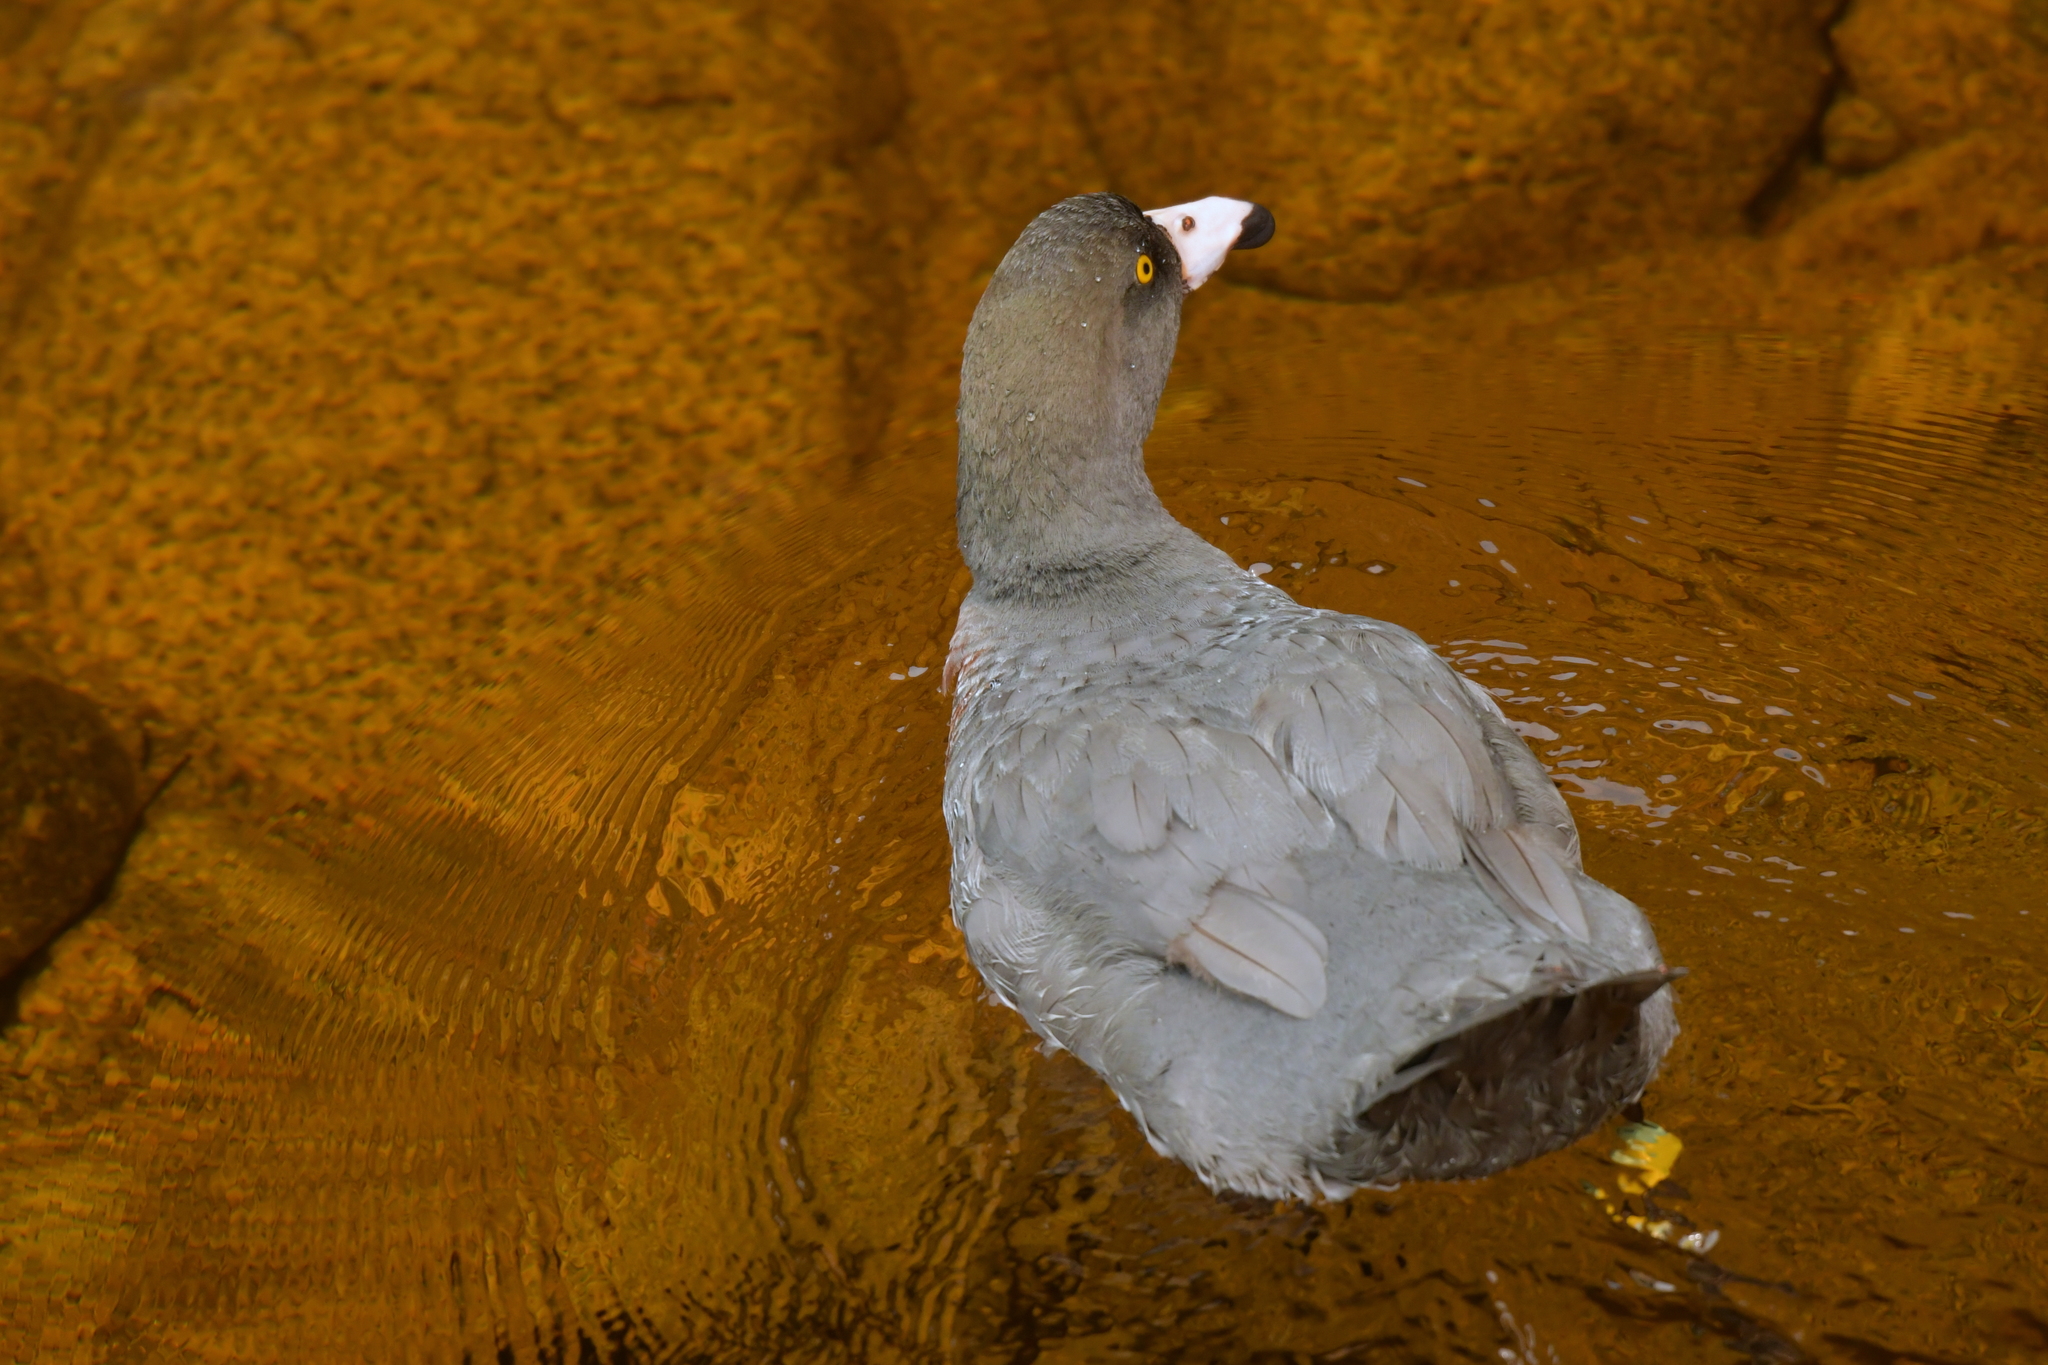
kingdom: Animalia
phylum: Chordata
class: Aves
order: Anseriformes
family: Anatidae
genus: Hymenolaimus
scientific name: Hymenolaimus malacorhynchos
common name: Blue duck
